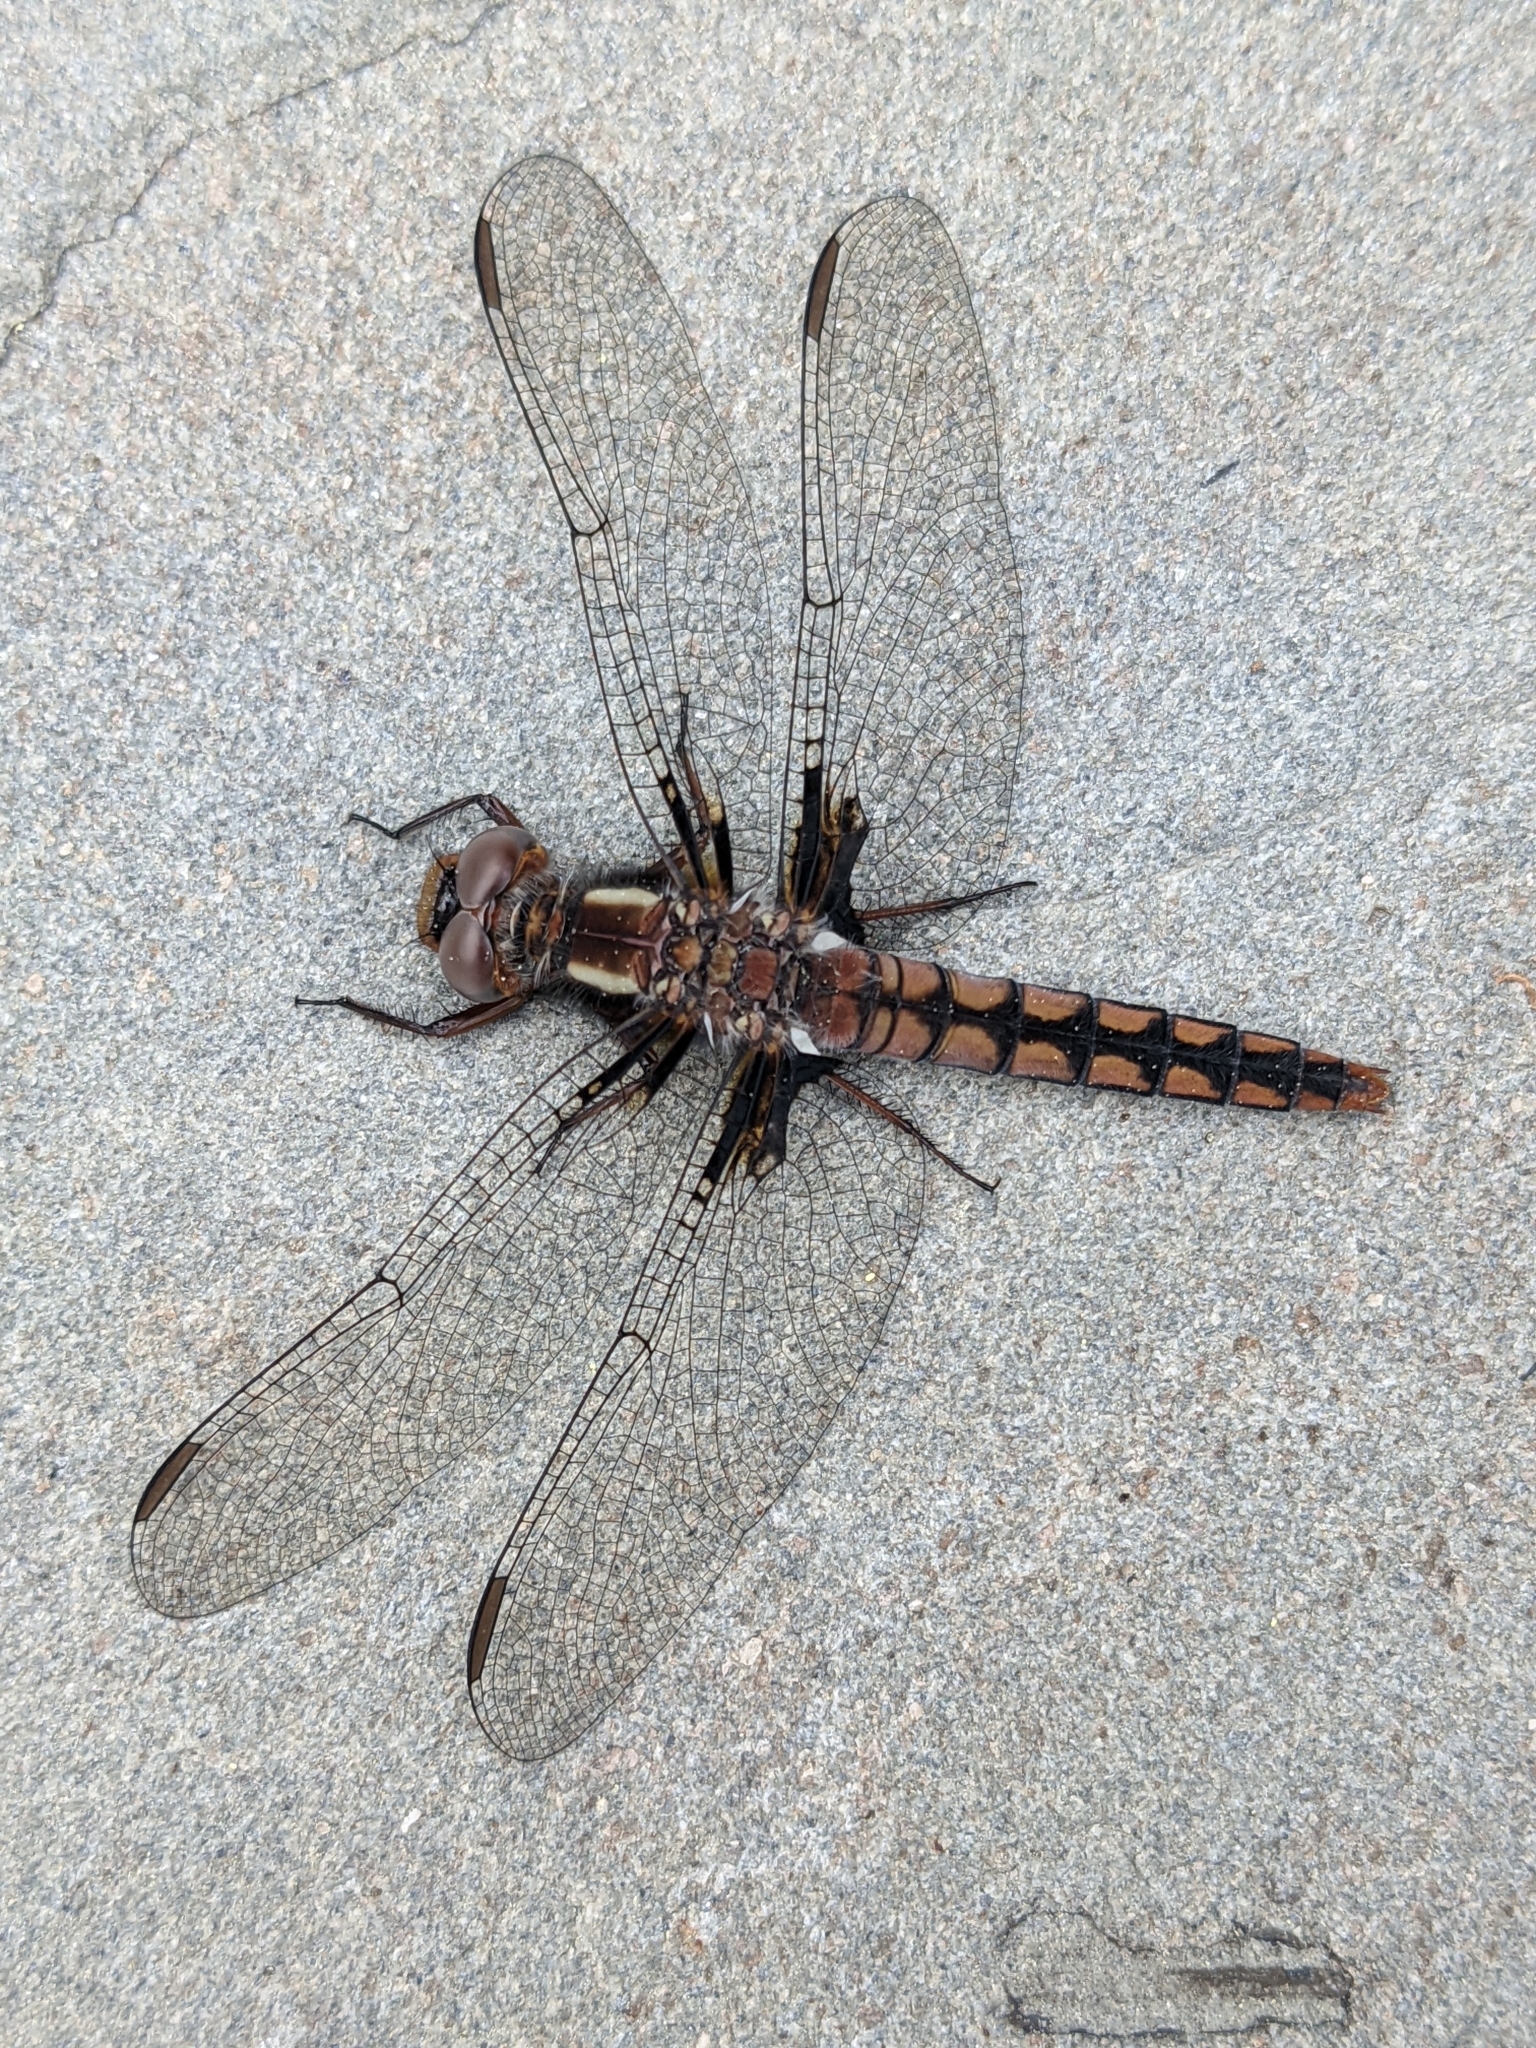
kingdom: Animalia
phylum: Arthropoda
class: Insecta
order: Odonata
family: Libellulidae
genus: Ladona
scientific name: Ladona deplanata
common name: Blue corporal
